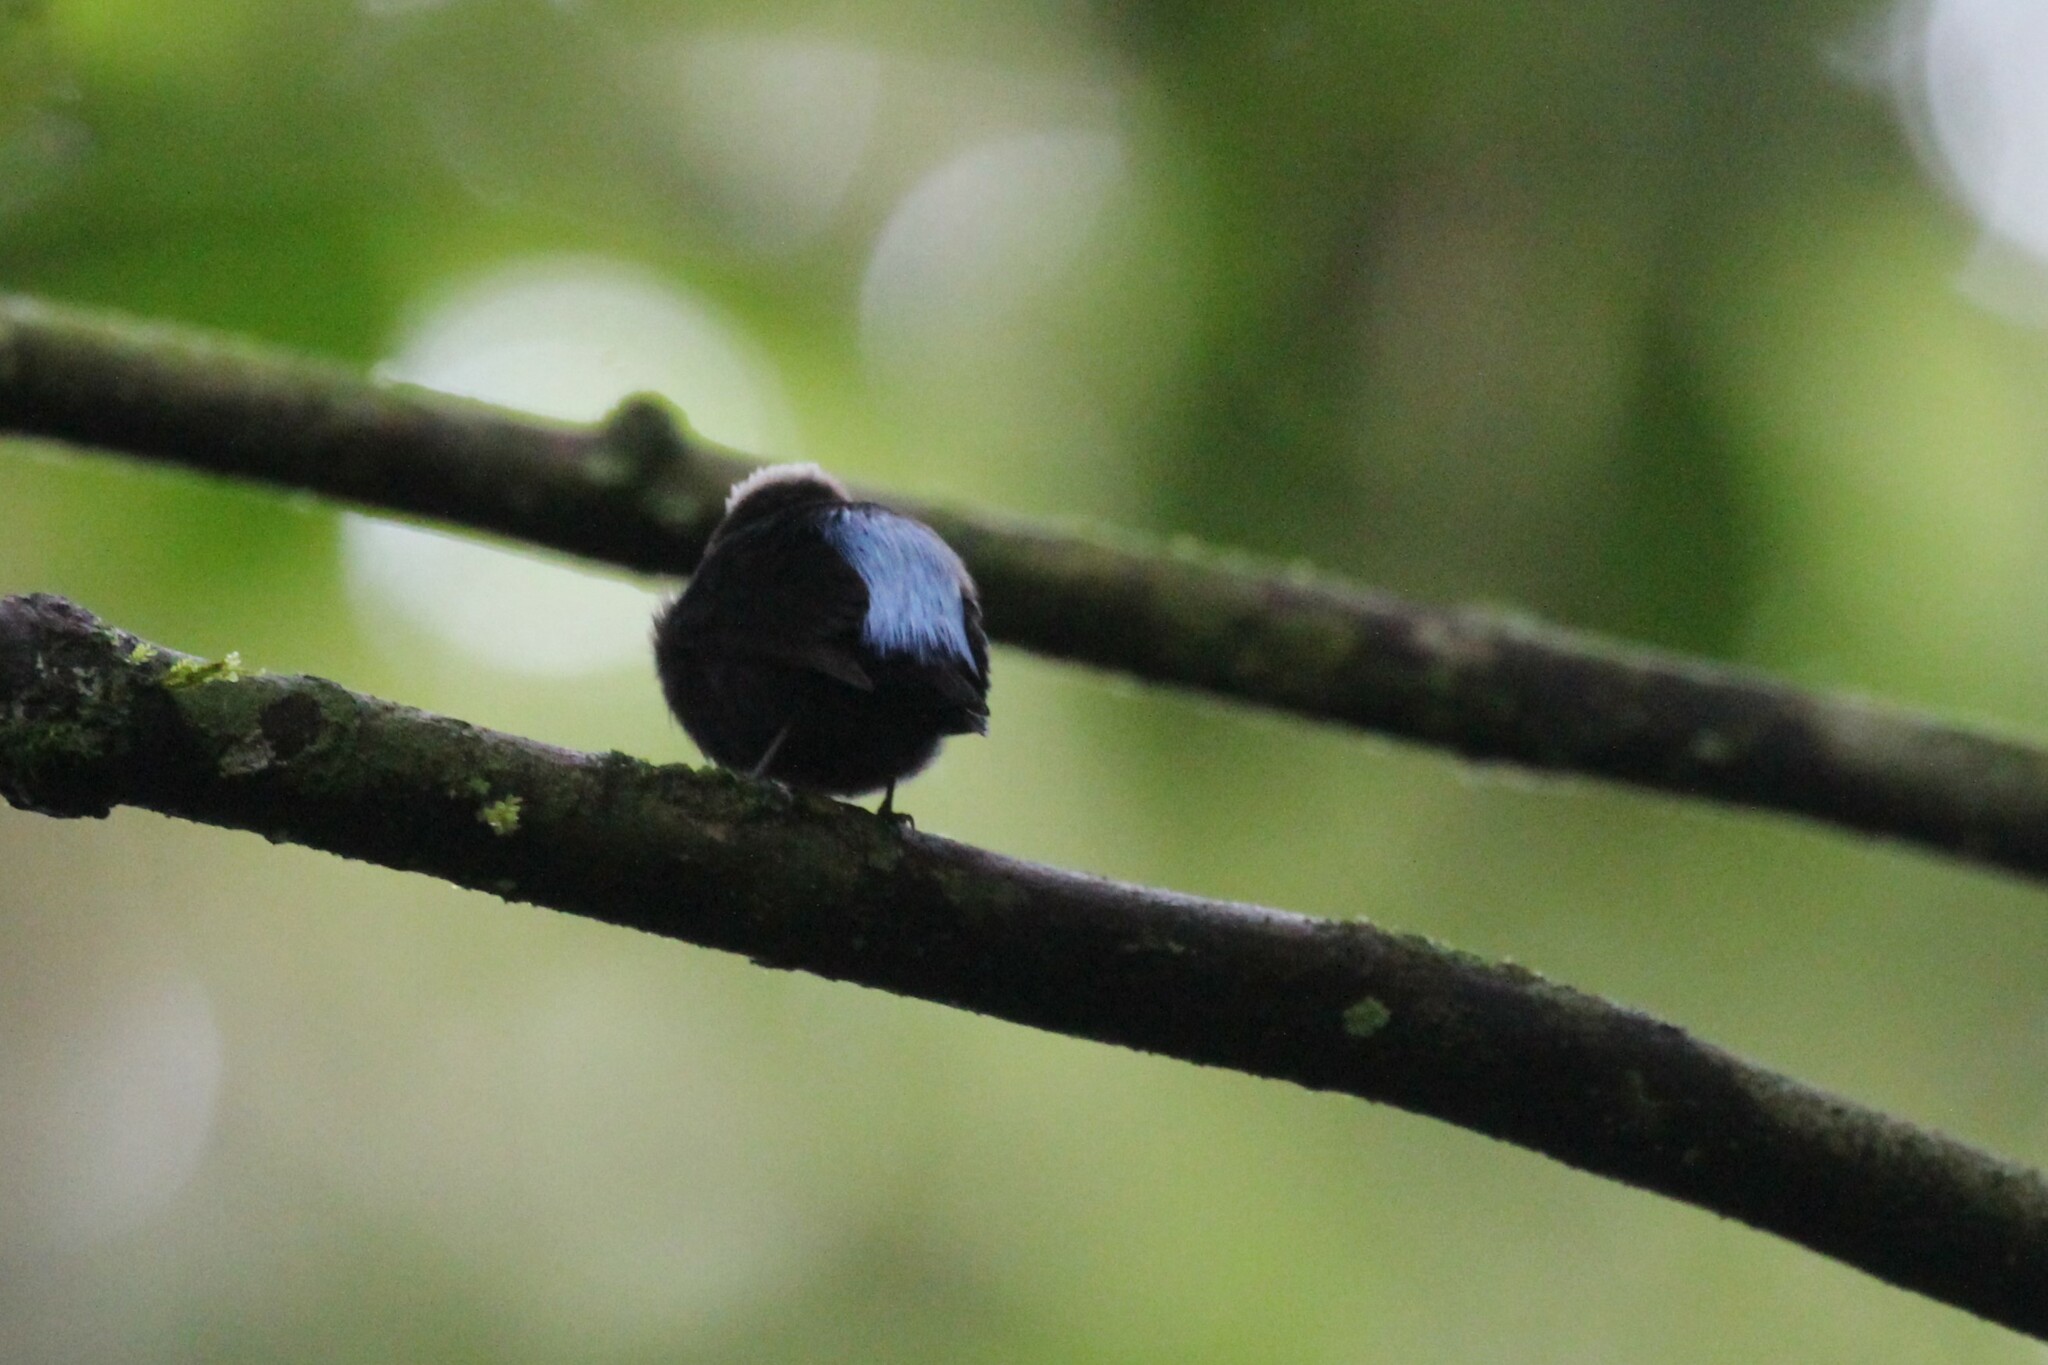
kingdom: Animalia
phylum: Chordata
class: Aves
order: Passeriformes
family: Pipridae
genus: Lepidothrix
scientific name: Lepidothrix isidorei
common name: Blue-rumped manakin
